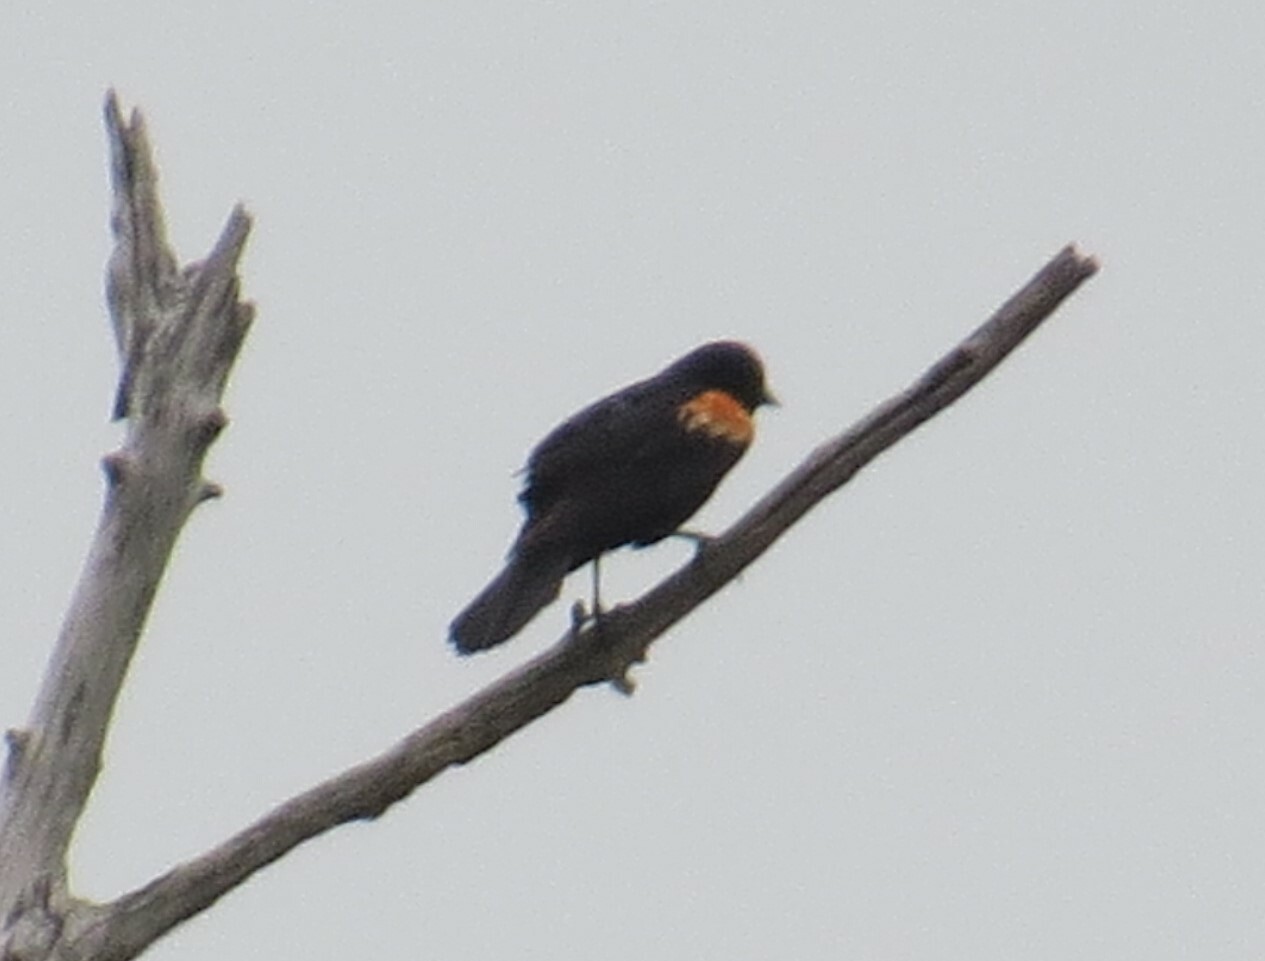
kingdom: Animalia
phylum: Chordata
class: Aves
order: Passeriformes
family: Icteridae
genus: Agelaius
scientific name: Agelaius phoeniceus
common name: Red-winged blackbird
